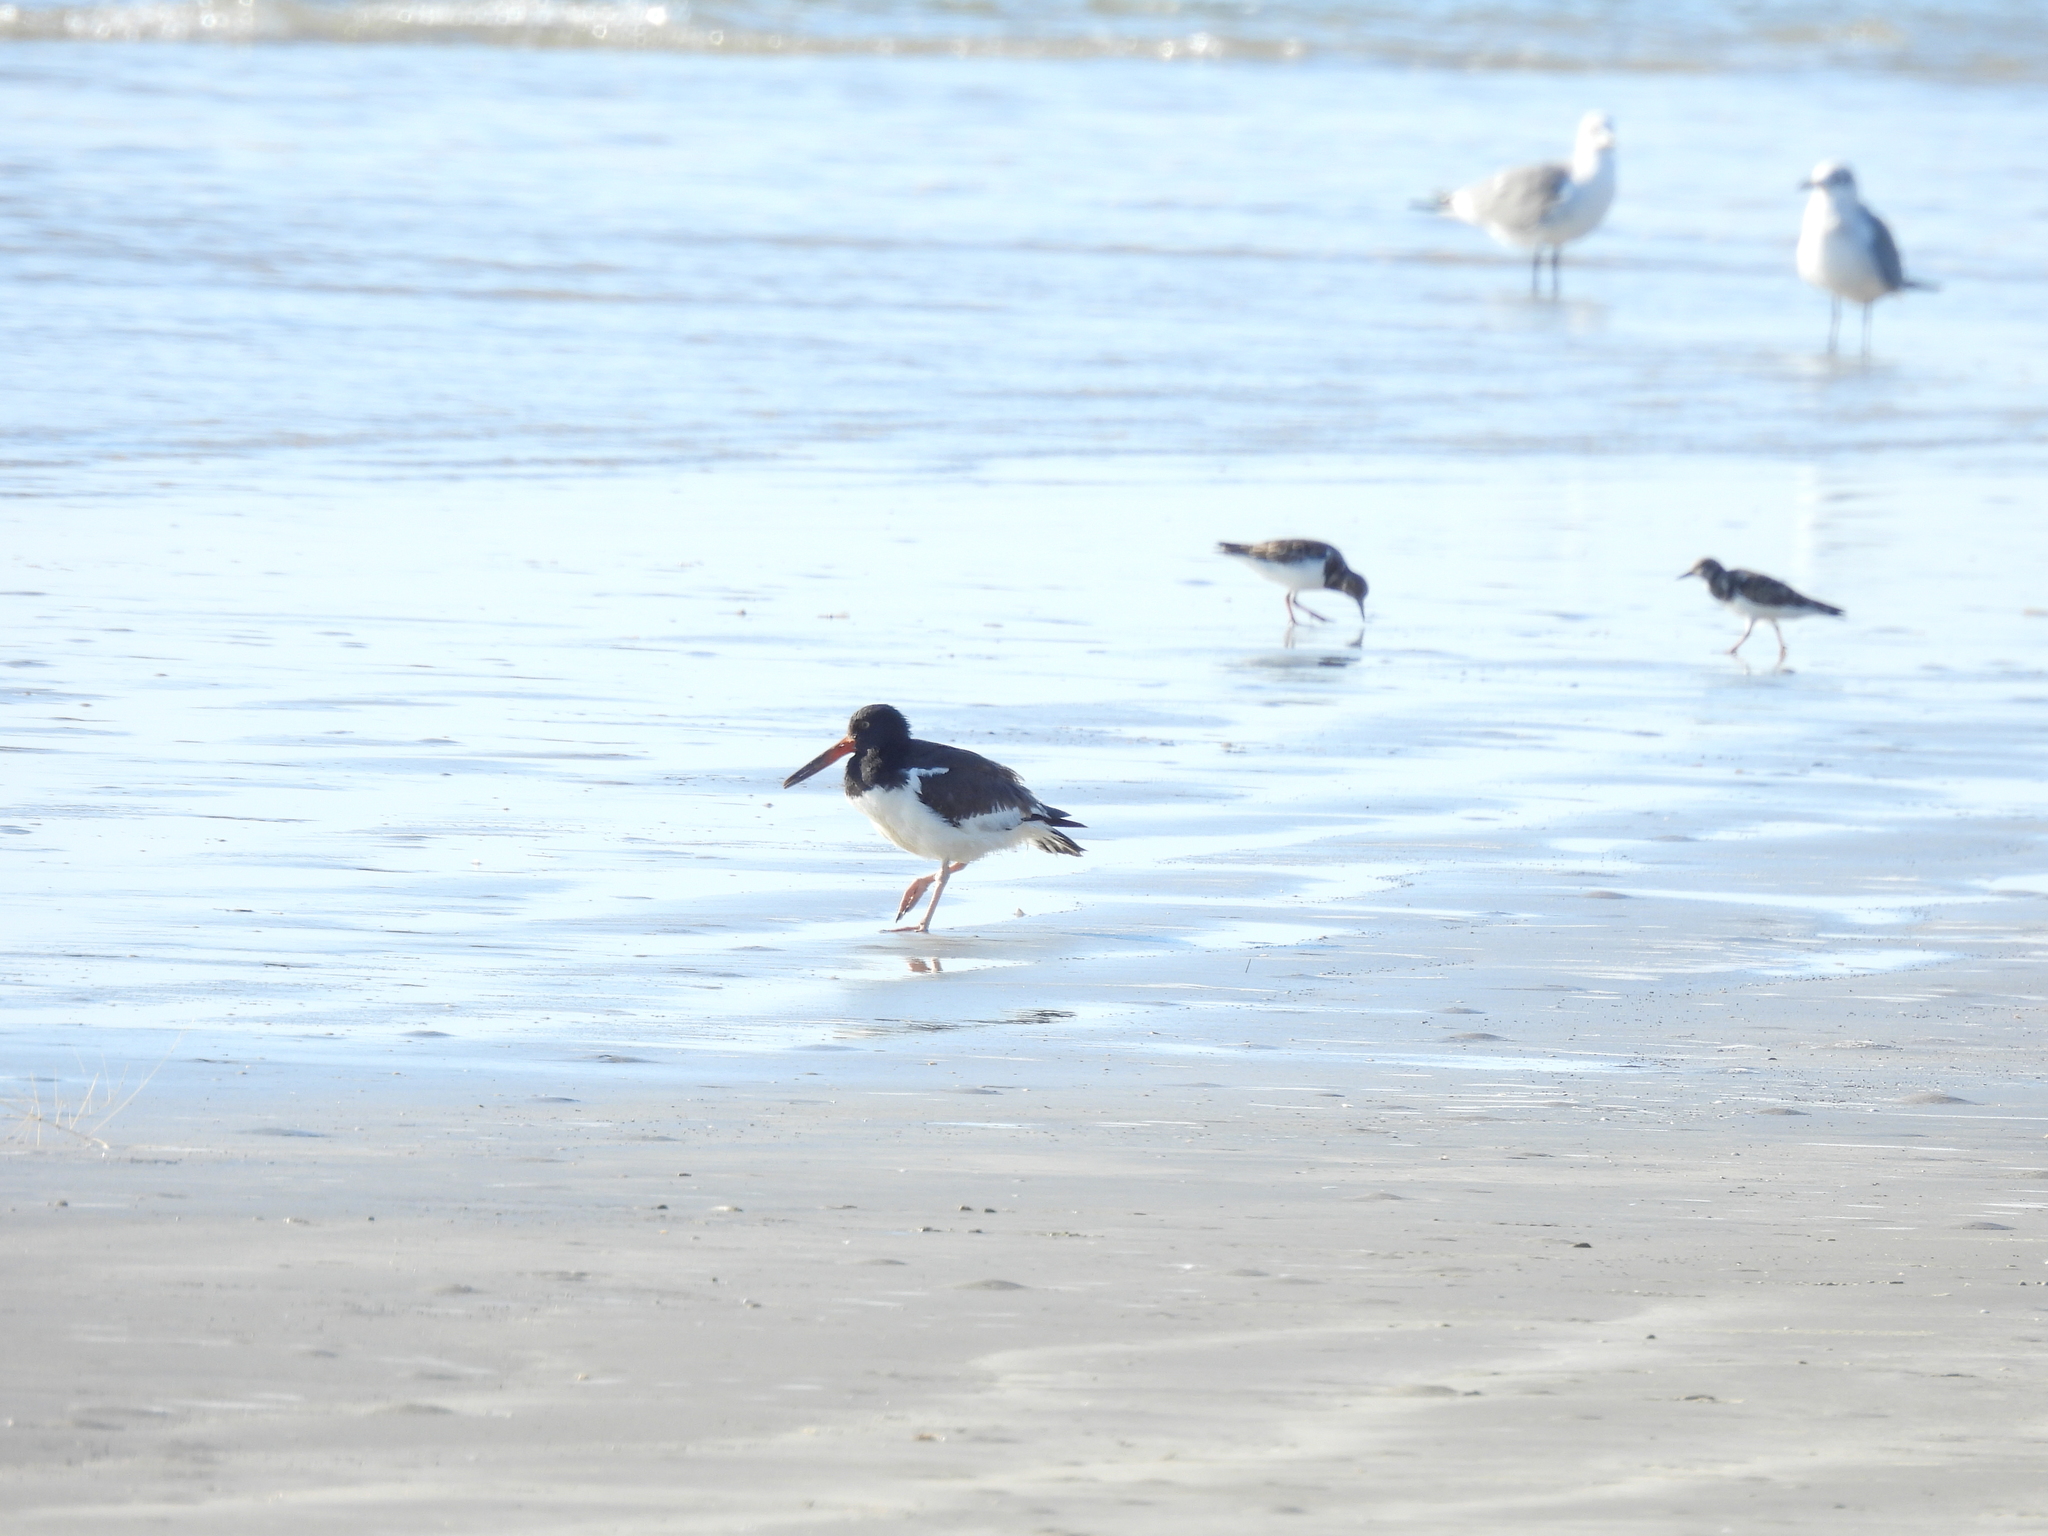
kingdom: Animalia
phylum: Chordata
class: Aves
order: Charadriiformes
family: Haematopodidae
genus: Haematopus
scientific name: Haematopus palliatus
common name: American oystercatcher
